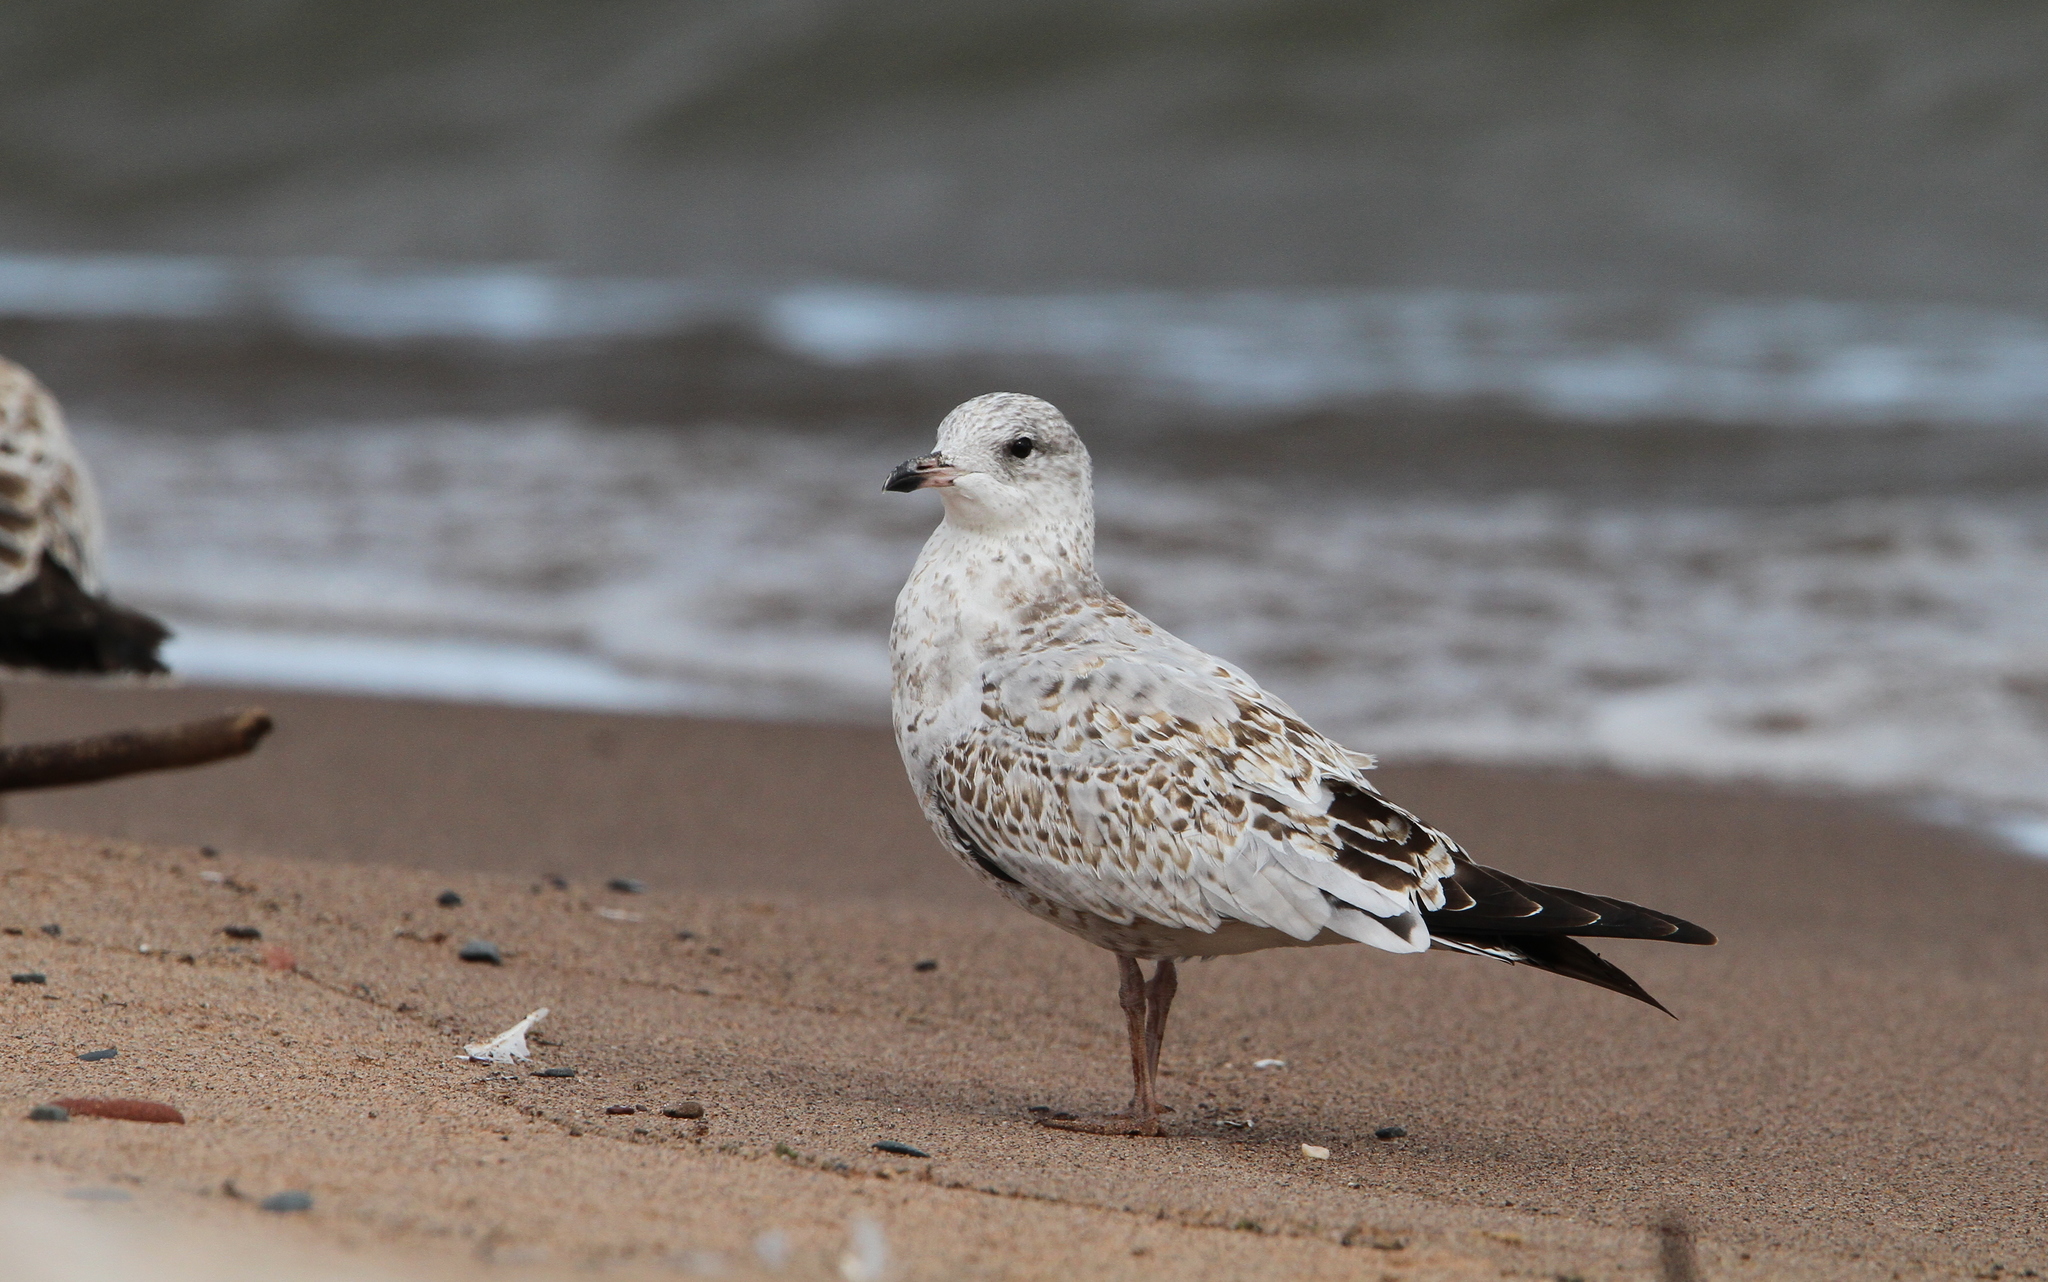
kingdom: Animalia
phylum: Chordata
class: Aves
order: Charadriiformes
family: Laridae
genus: Larus
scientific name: Larus delawarensis
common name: Ring-billed gull
